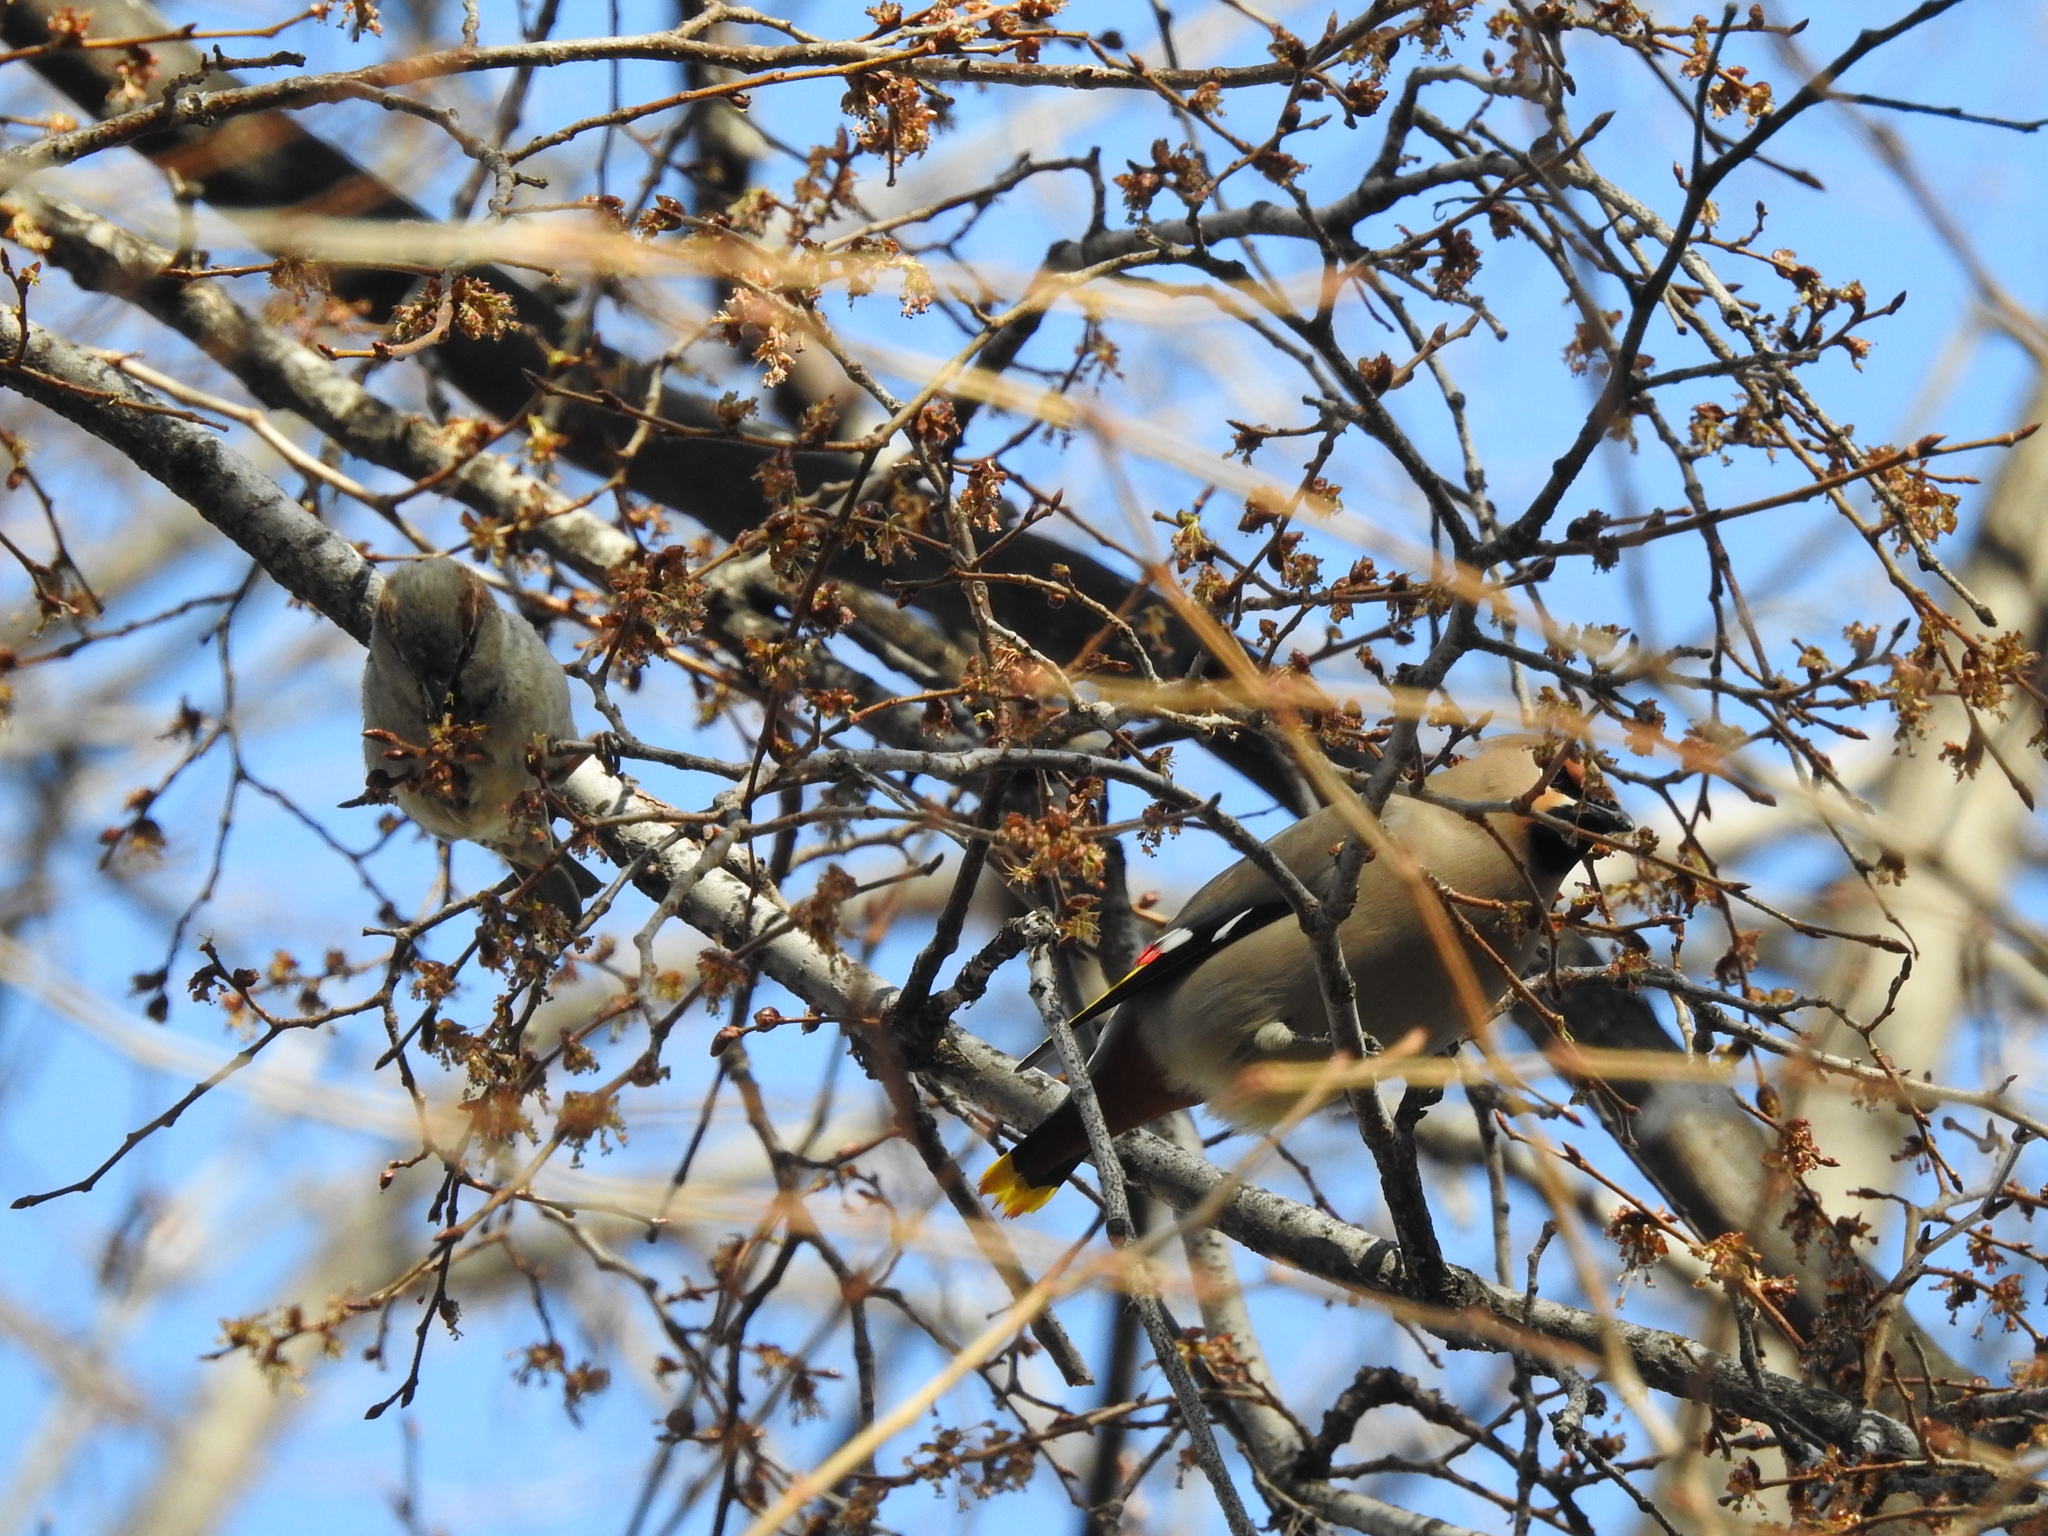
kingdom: Animalia
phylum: Chordata
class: Aves
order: Passeriformes
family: Bombycillidae
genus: Bombycilla
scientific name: Bombycilla garrulus
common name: Bohemian waxwing
